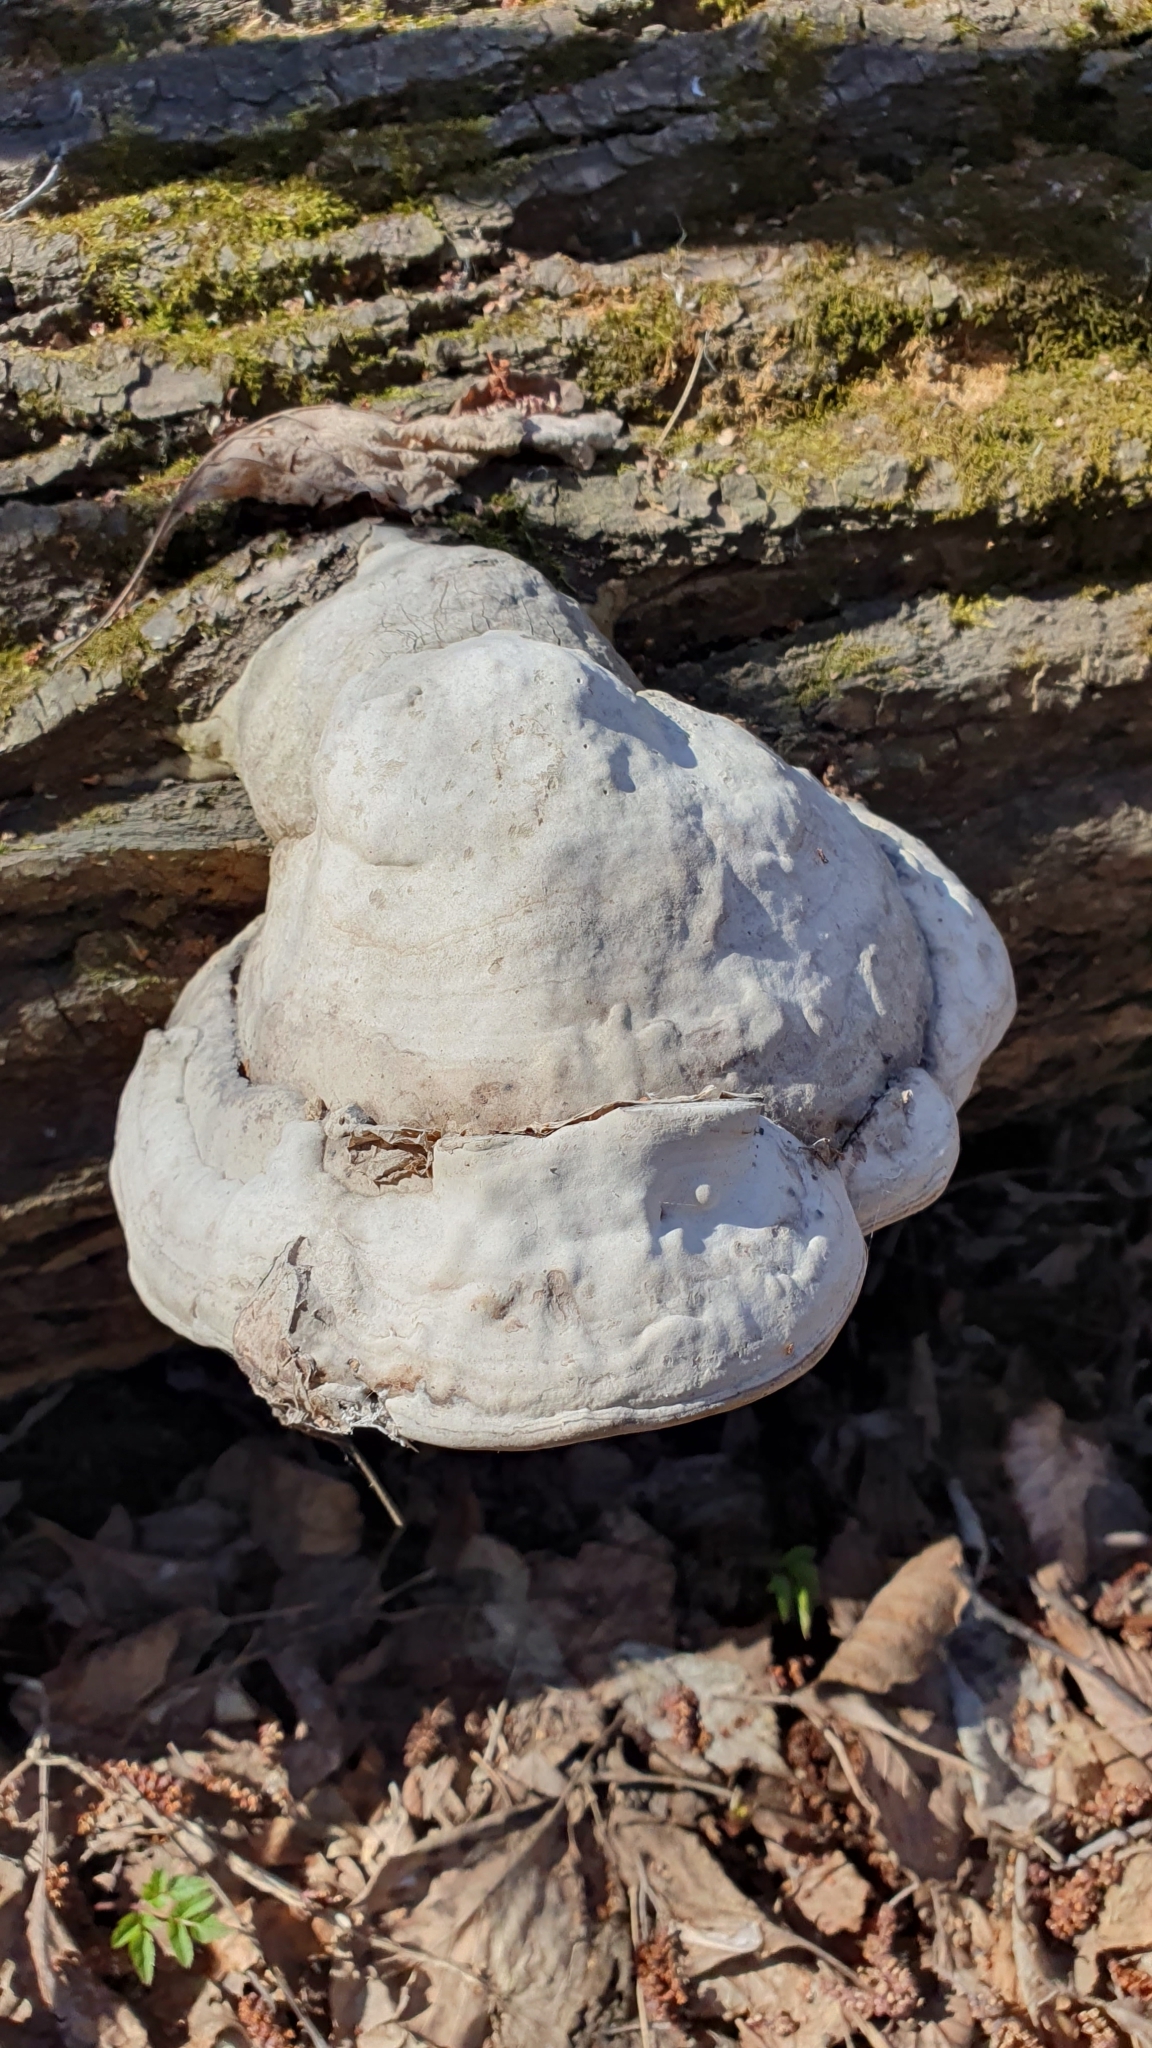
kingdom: Fungi
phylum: Basidiomycota
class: Agaricomycetes
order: Polyporales
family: Polyporaceae
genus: Fomes
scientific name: Fomes fomentarius
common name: Hoof fungus
